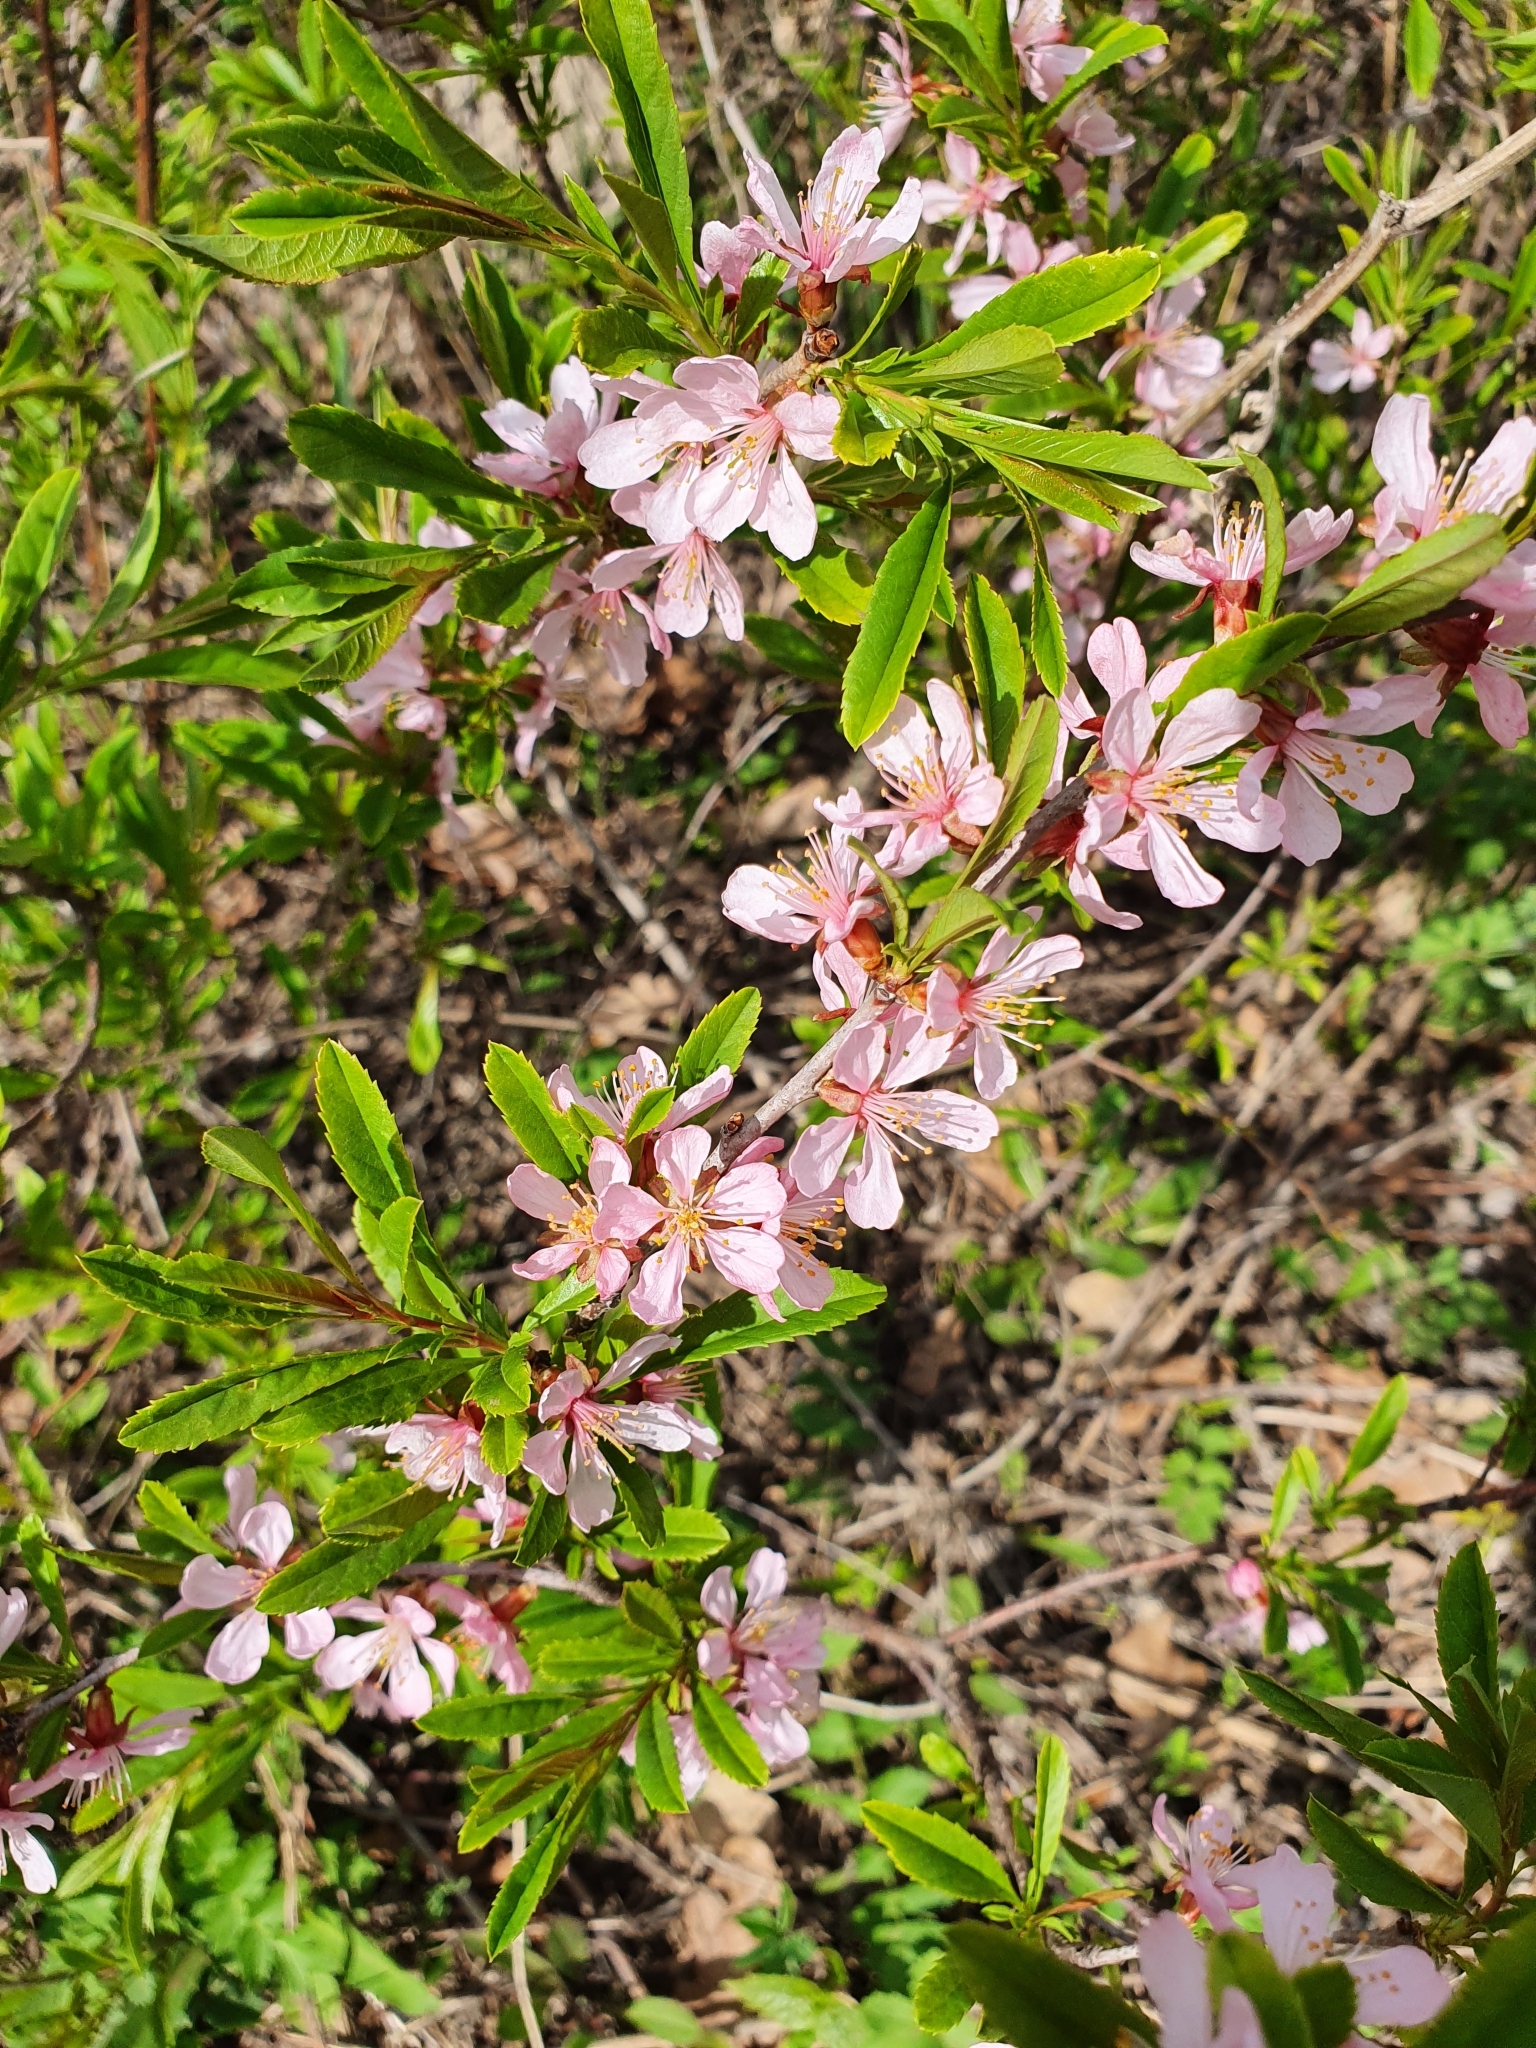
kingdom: Plantae
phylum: Tracheophyta
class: Magnoliopsida
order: Rosales
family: Rosaceae
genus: Prunus
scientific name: Prunus tenella
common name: Dwarf russian almond
